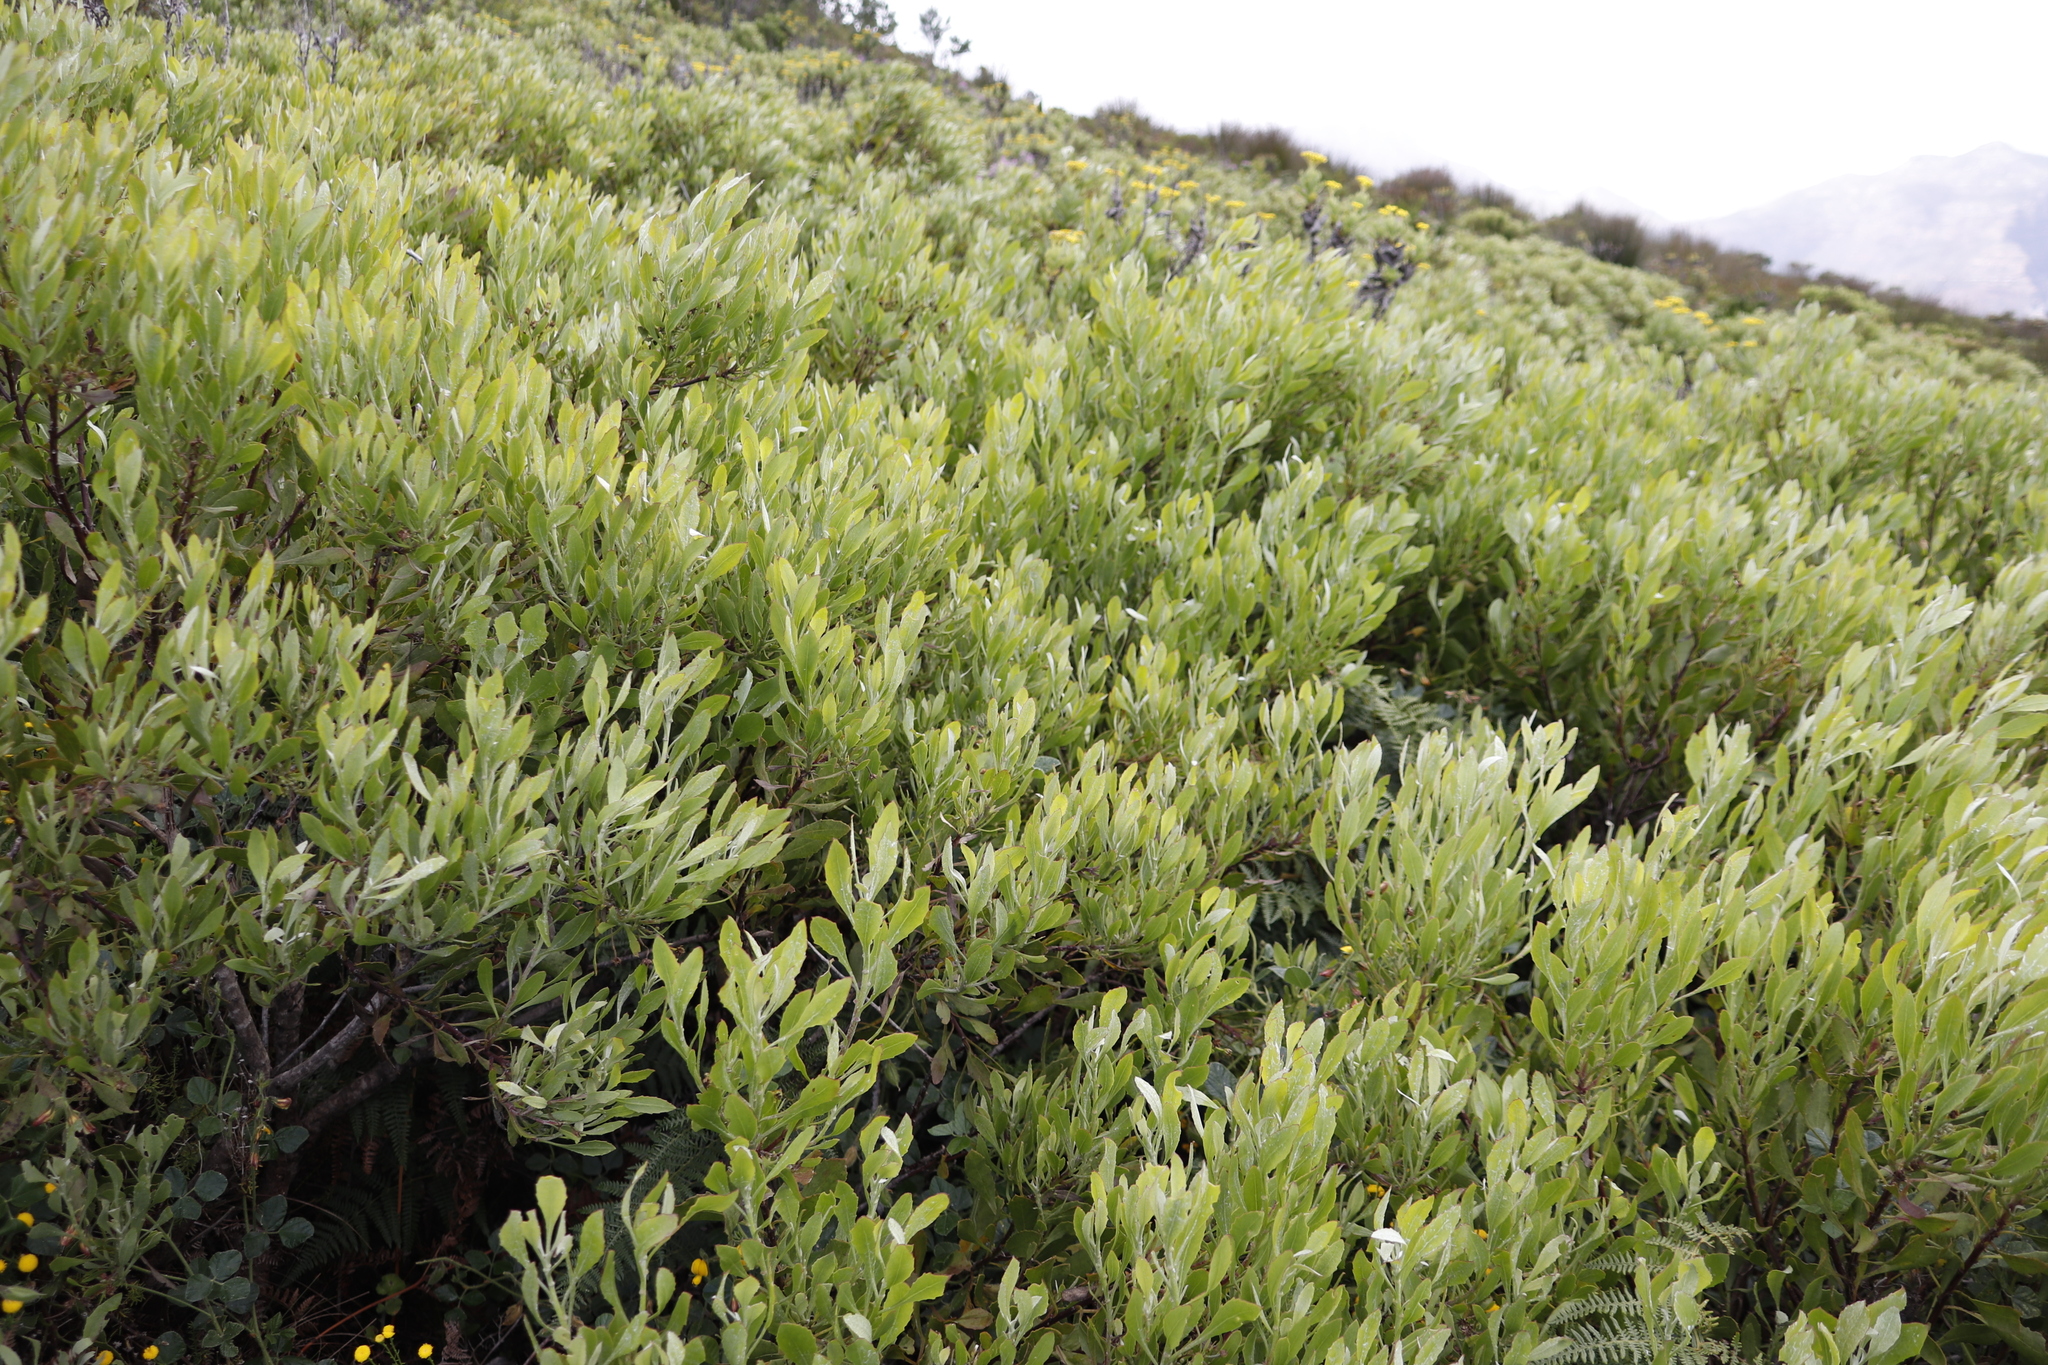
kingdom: Plantae
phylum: Tracheophyta
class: Magnoliopsida
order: Asterales
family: Asteraceae
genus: Osteospermum
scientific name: Osteospermum moniliferum
